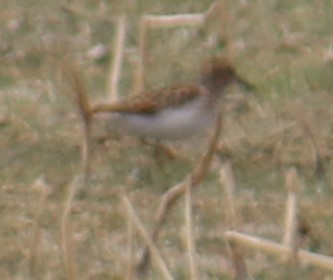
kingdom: Animalia
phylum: Chordata
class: Aves
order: Charadriiformes
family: Scolopacidae
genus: Calidris
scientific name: Calidris minutilla
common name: Least sandpiper
